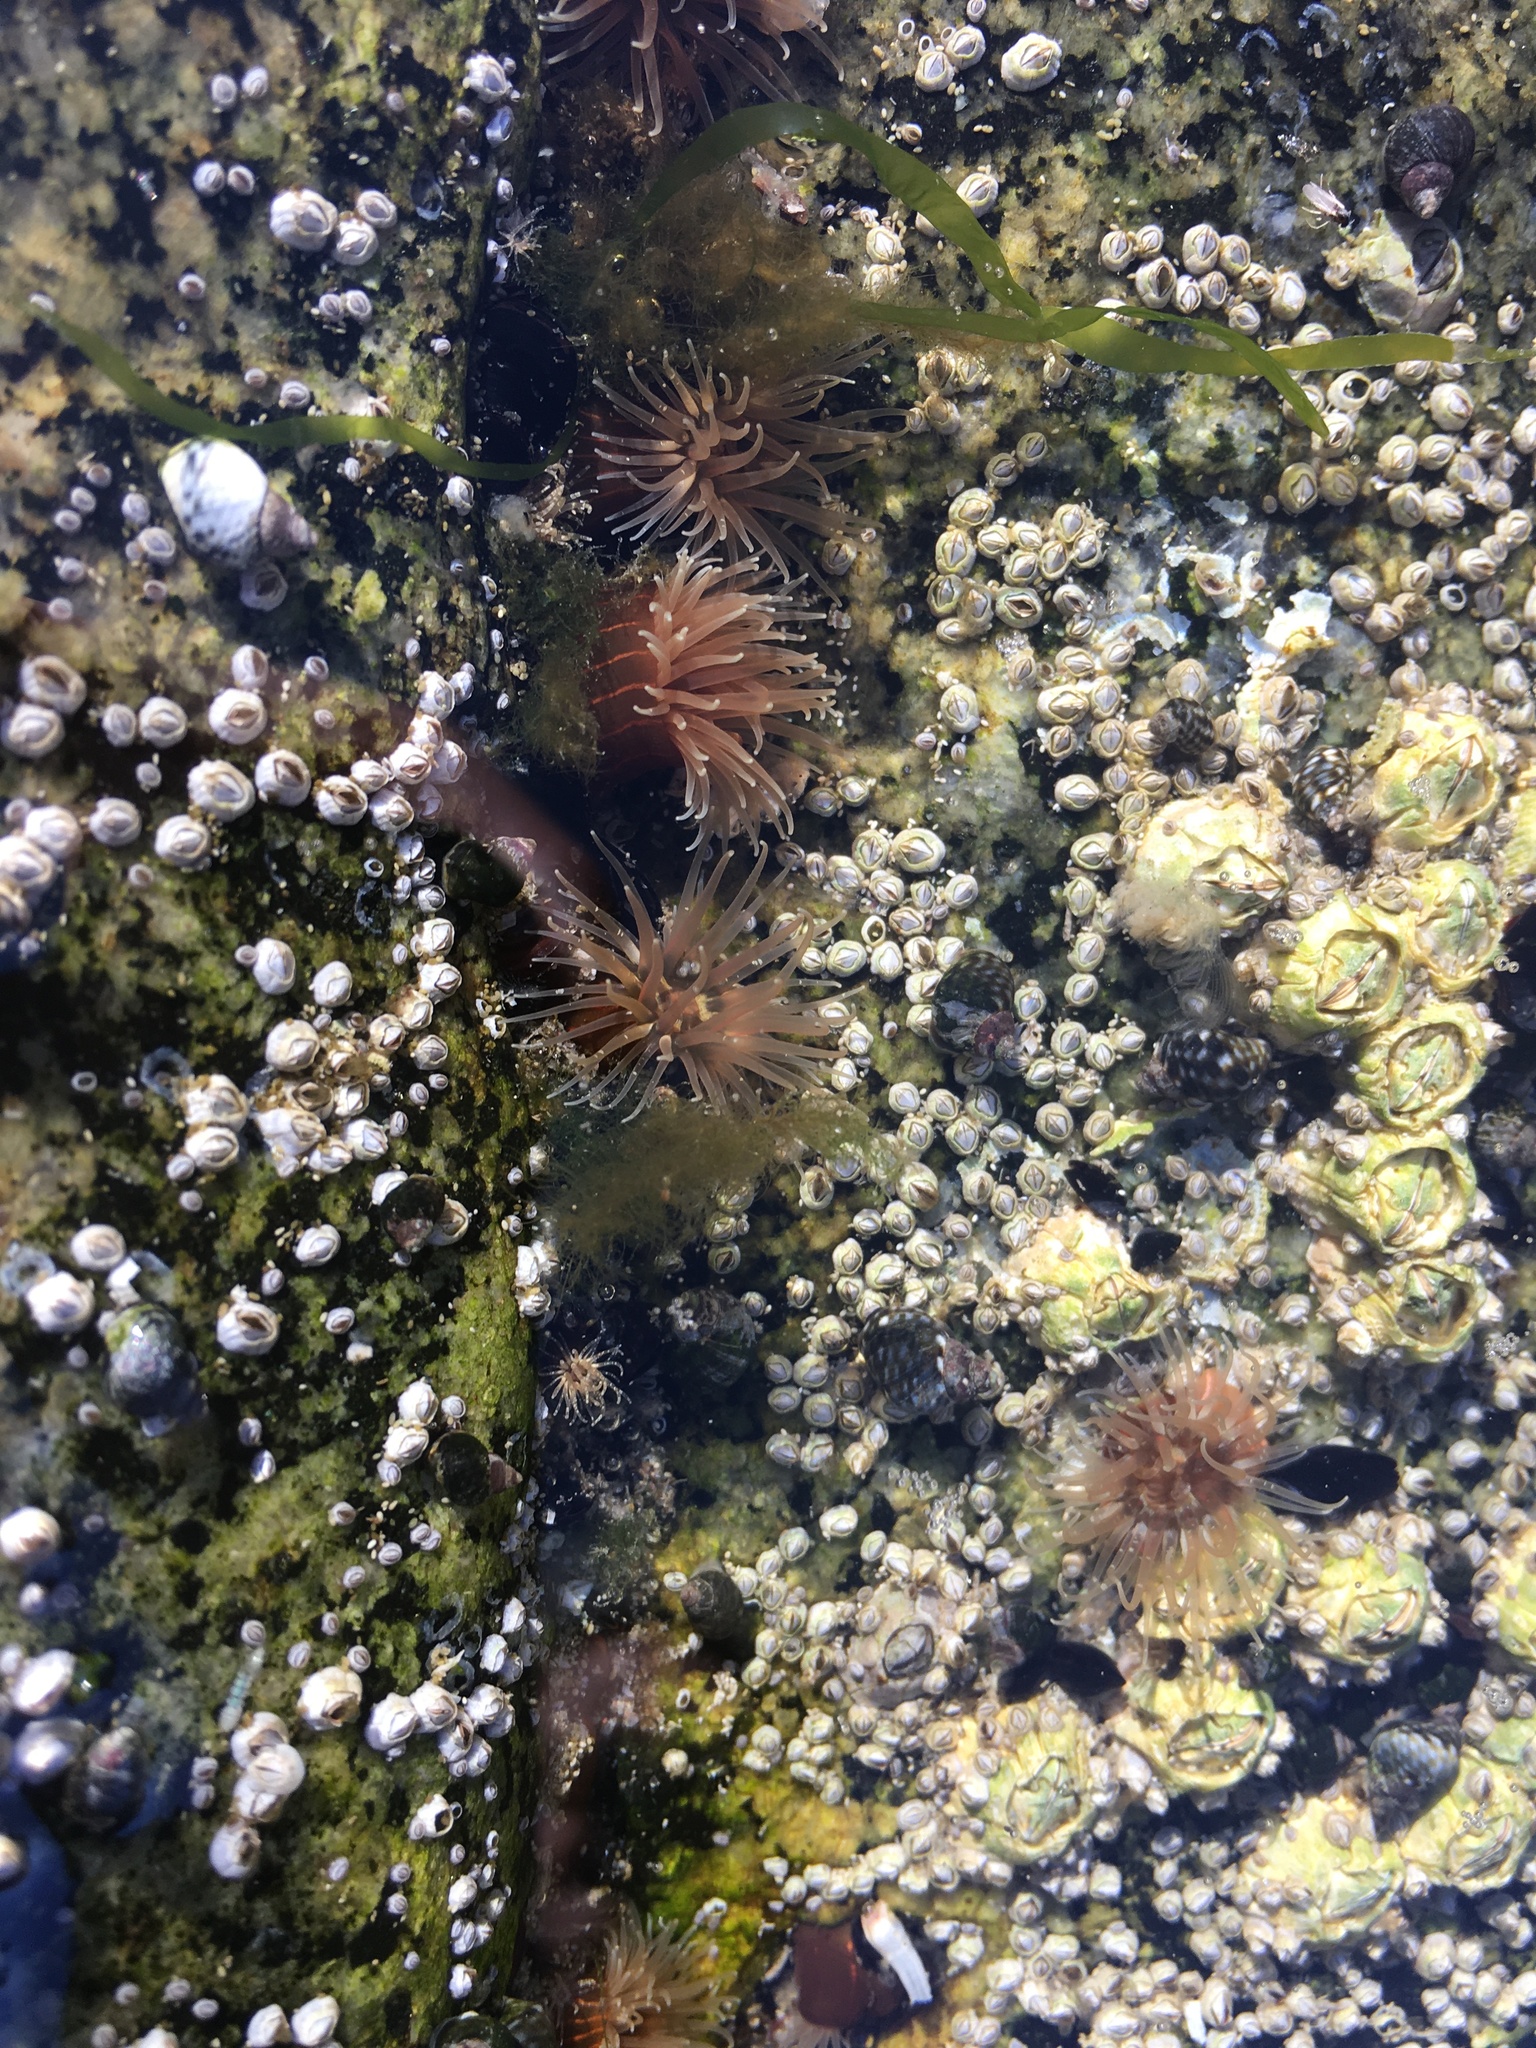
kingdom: Animalia
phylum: Cnidaria
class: Anthozoa
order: Actiniaria
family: Diadumenidae
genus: Diadumene
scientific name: Diadumene lineata
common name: Orange-striped anemone
